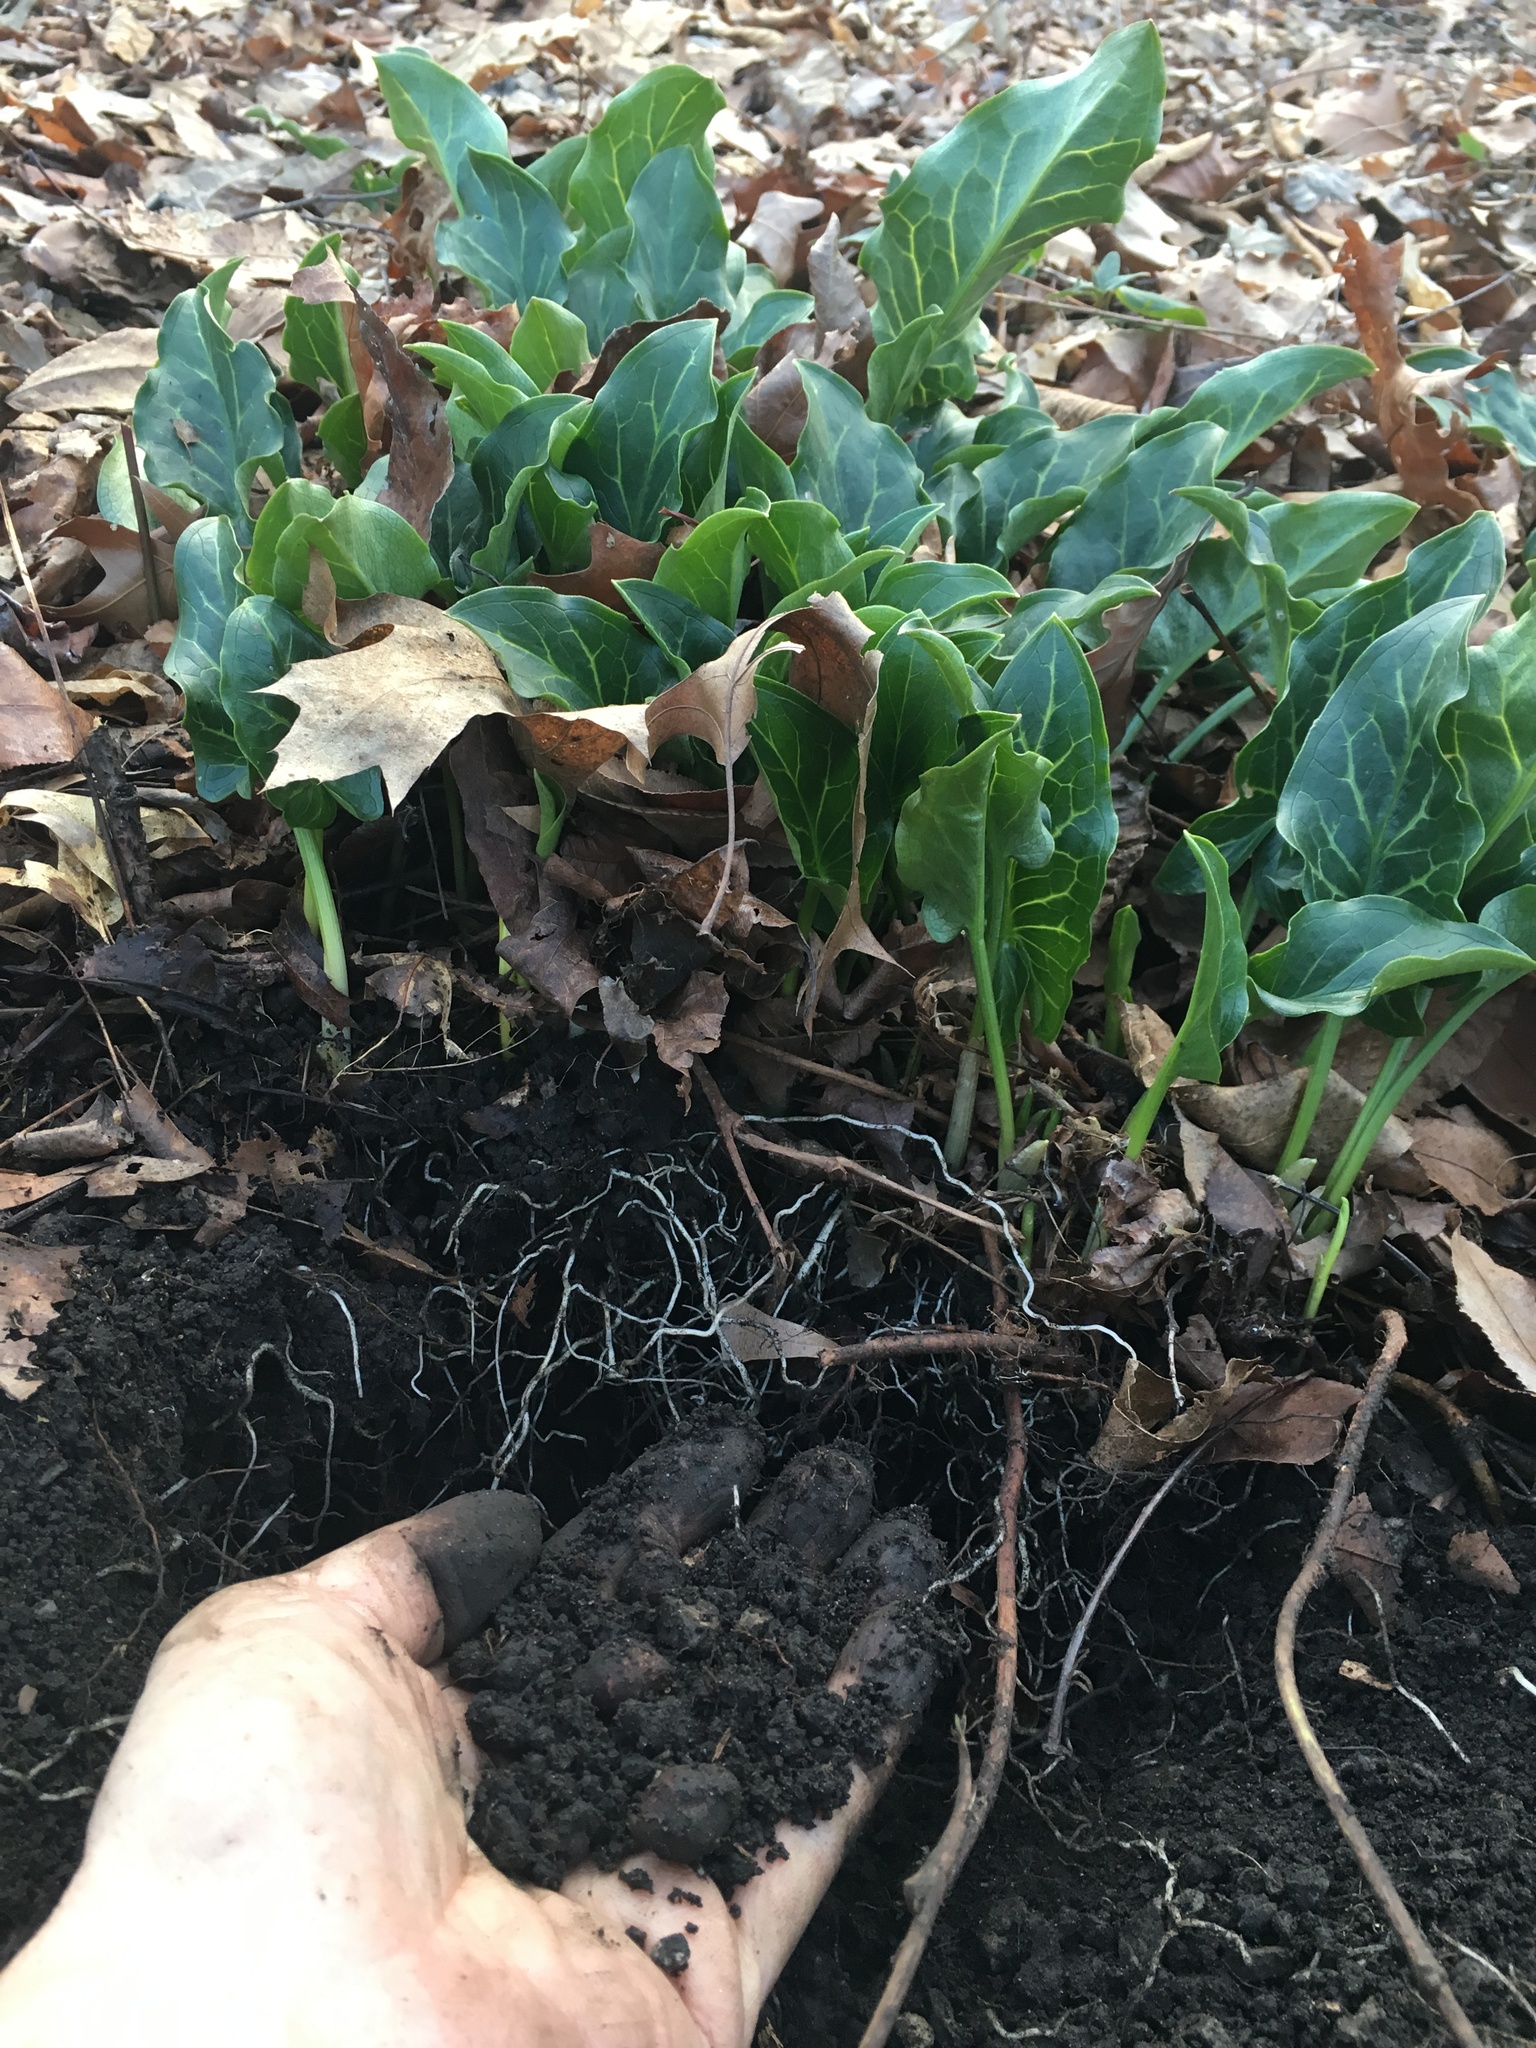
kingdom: Plantae
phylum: Tracheophyta
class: Liliopsida
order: Alismatales
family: Araceae
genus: Arum
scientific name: Arum italicum
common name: Italian lords-and-ladies
